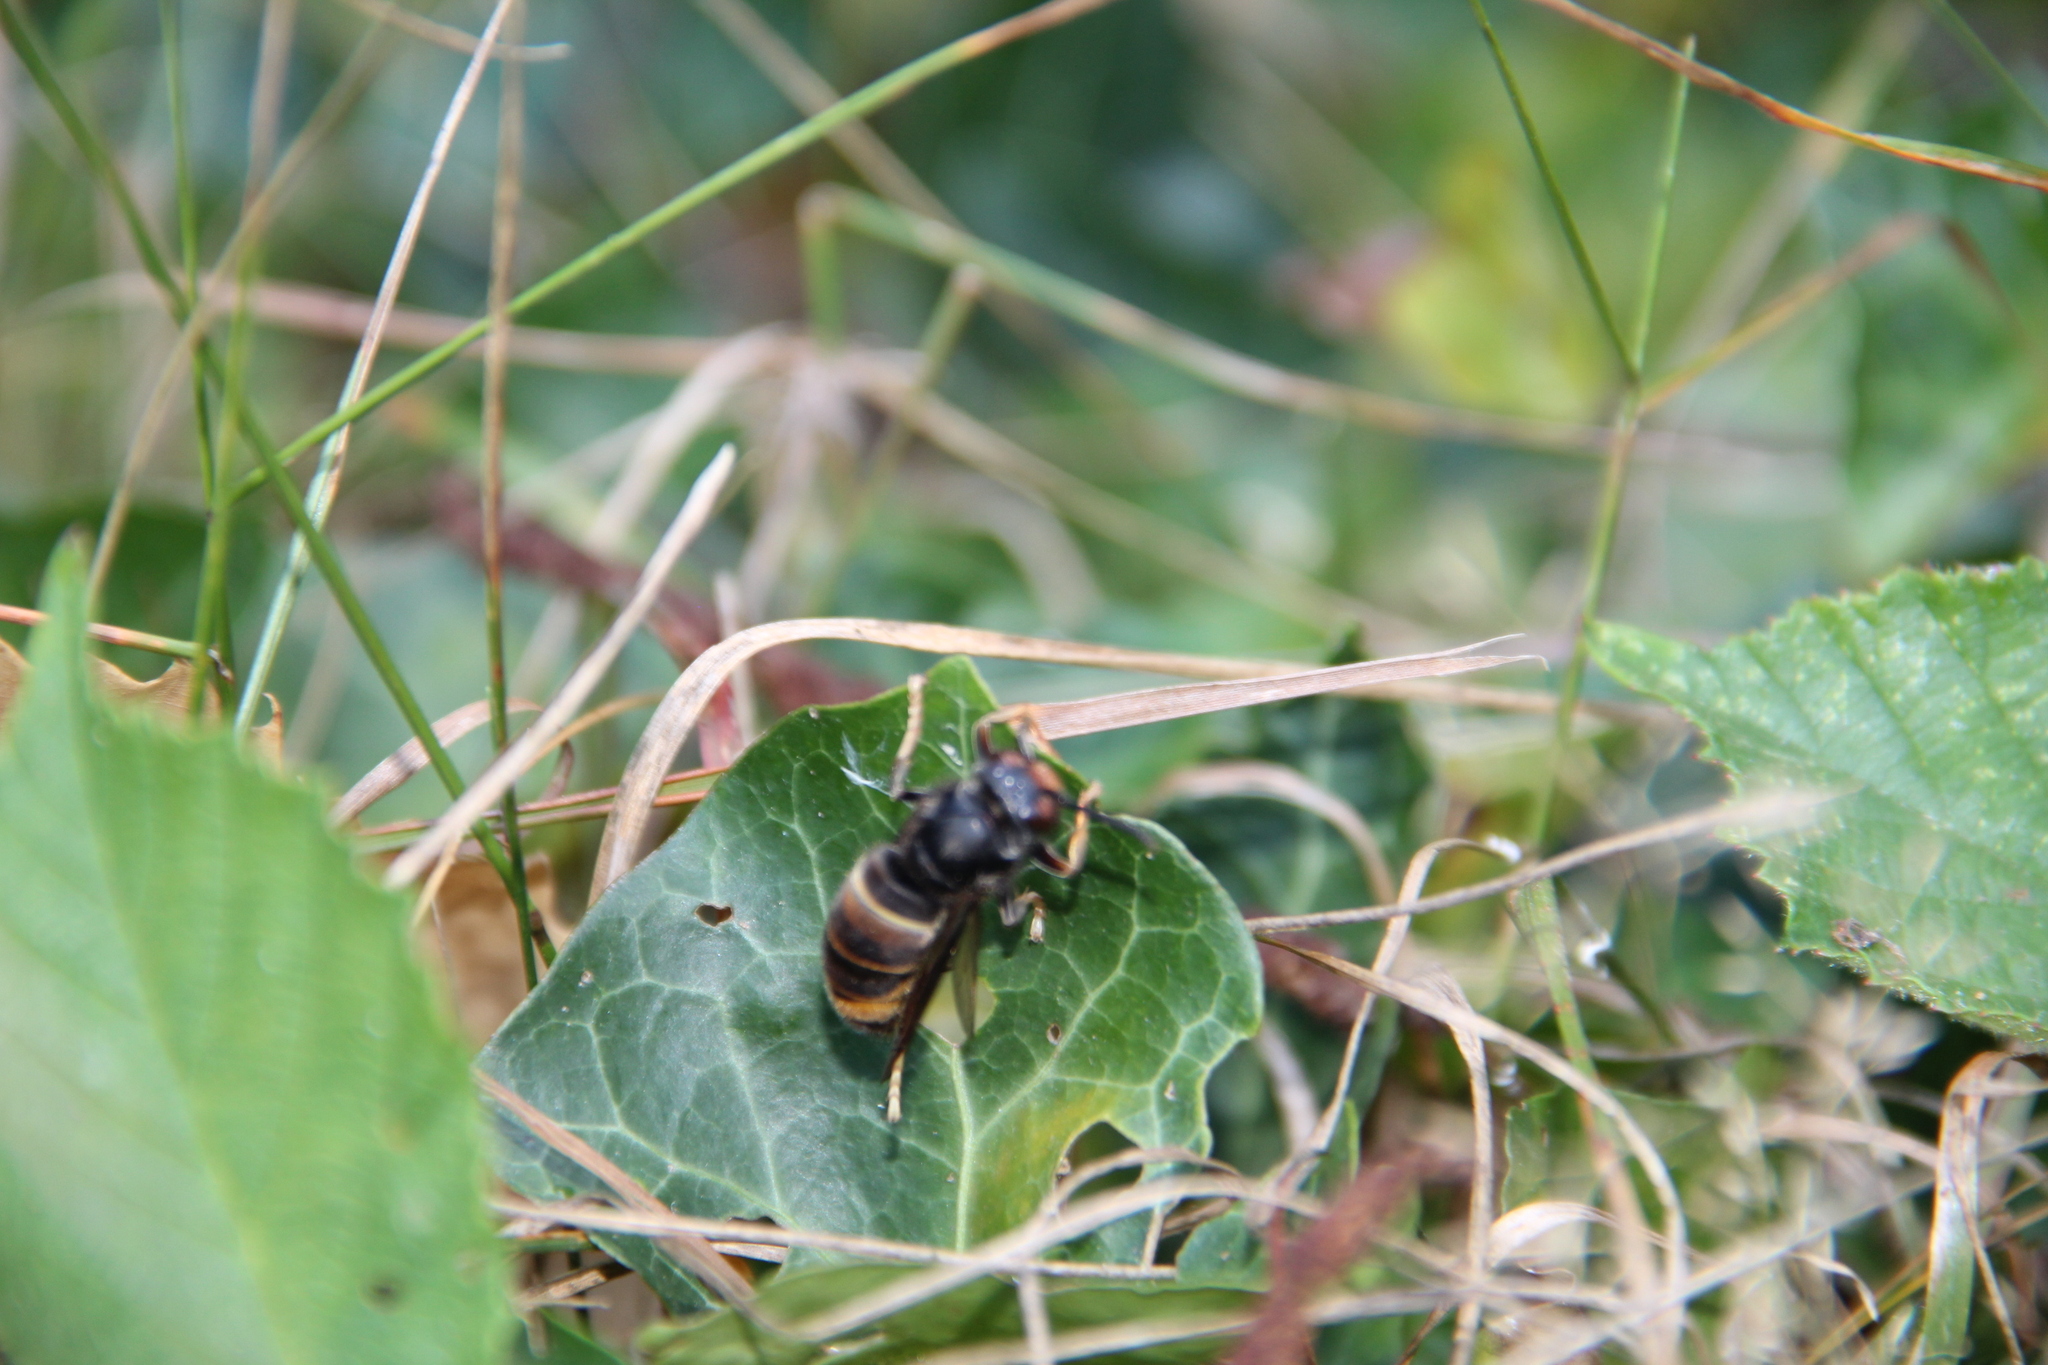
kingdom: Animalia
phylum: Arthropoda
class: Insecta
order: Hymenoptera
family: Vespidae
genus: Vespa
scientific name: Vespa velutina
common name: Asian hornet
